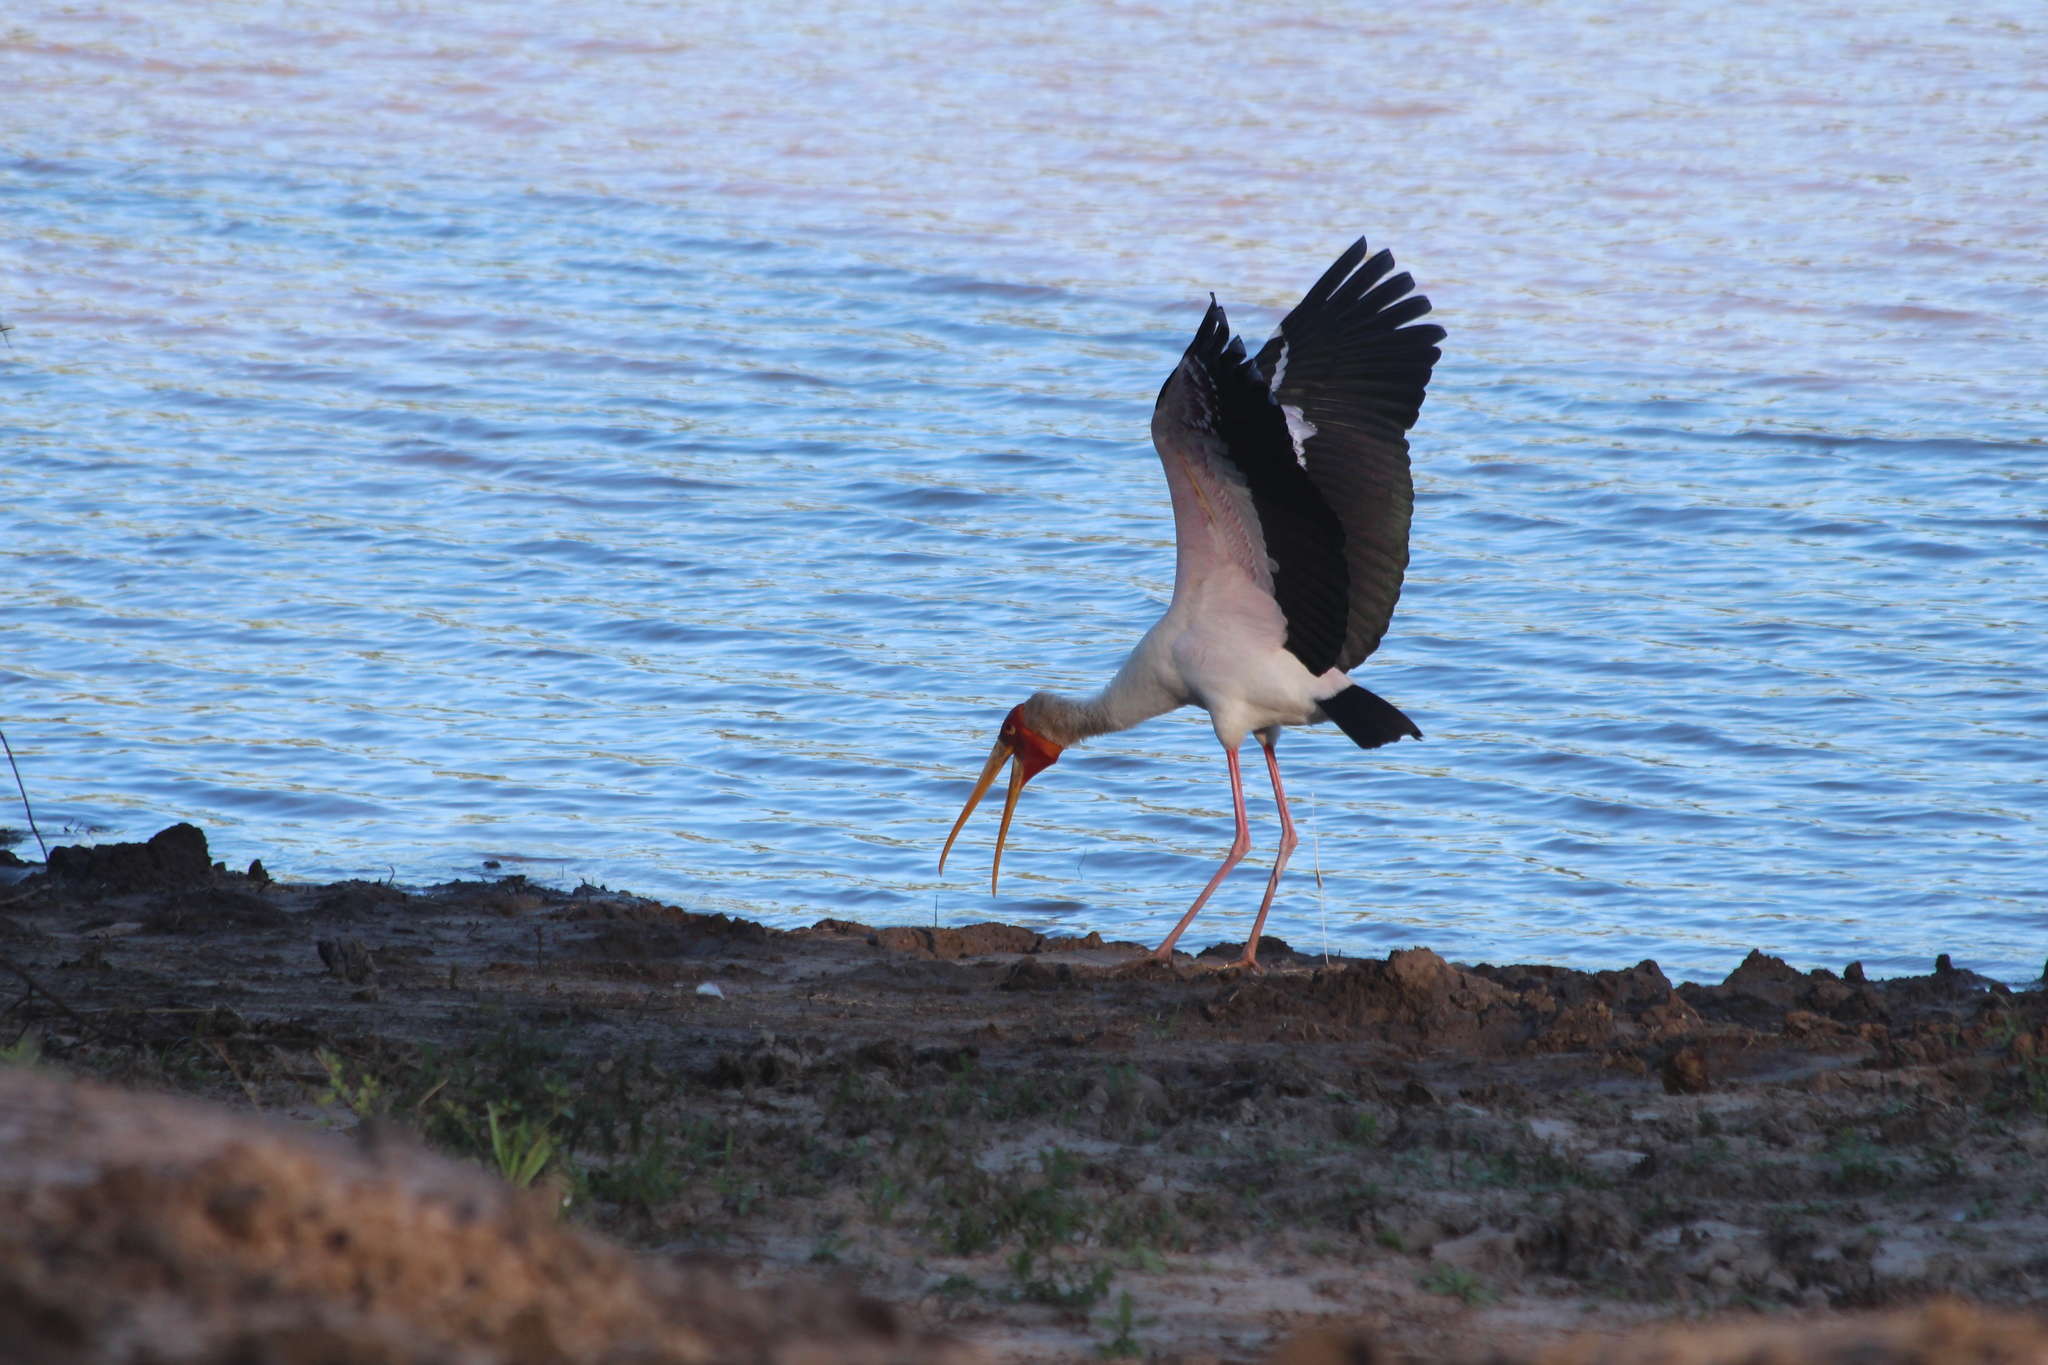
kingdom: Animalia
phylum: Chordata
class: Aves
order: Ciconiiformes
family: Ciconiidae
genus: Mycteria
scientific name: Mycteria ibis
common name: Yellow-billed stork
